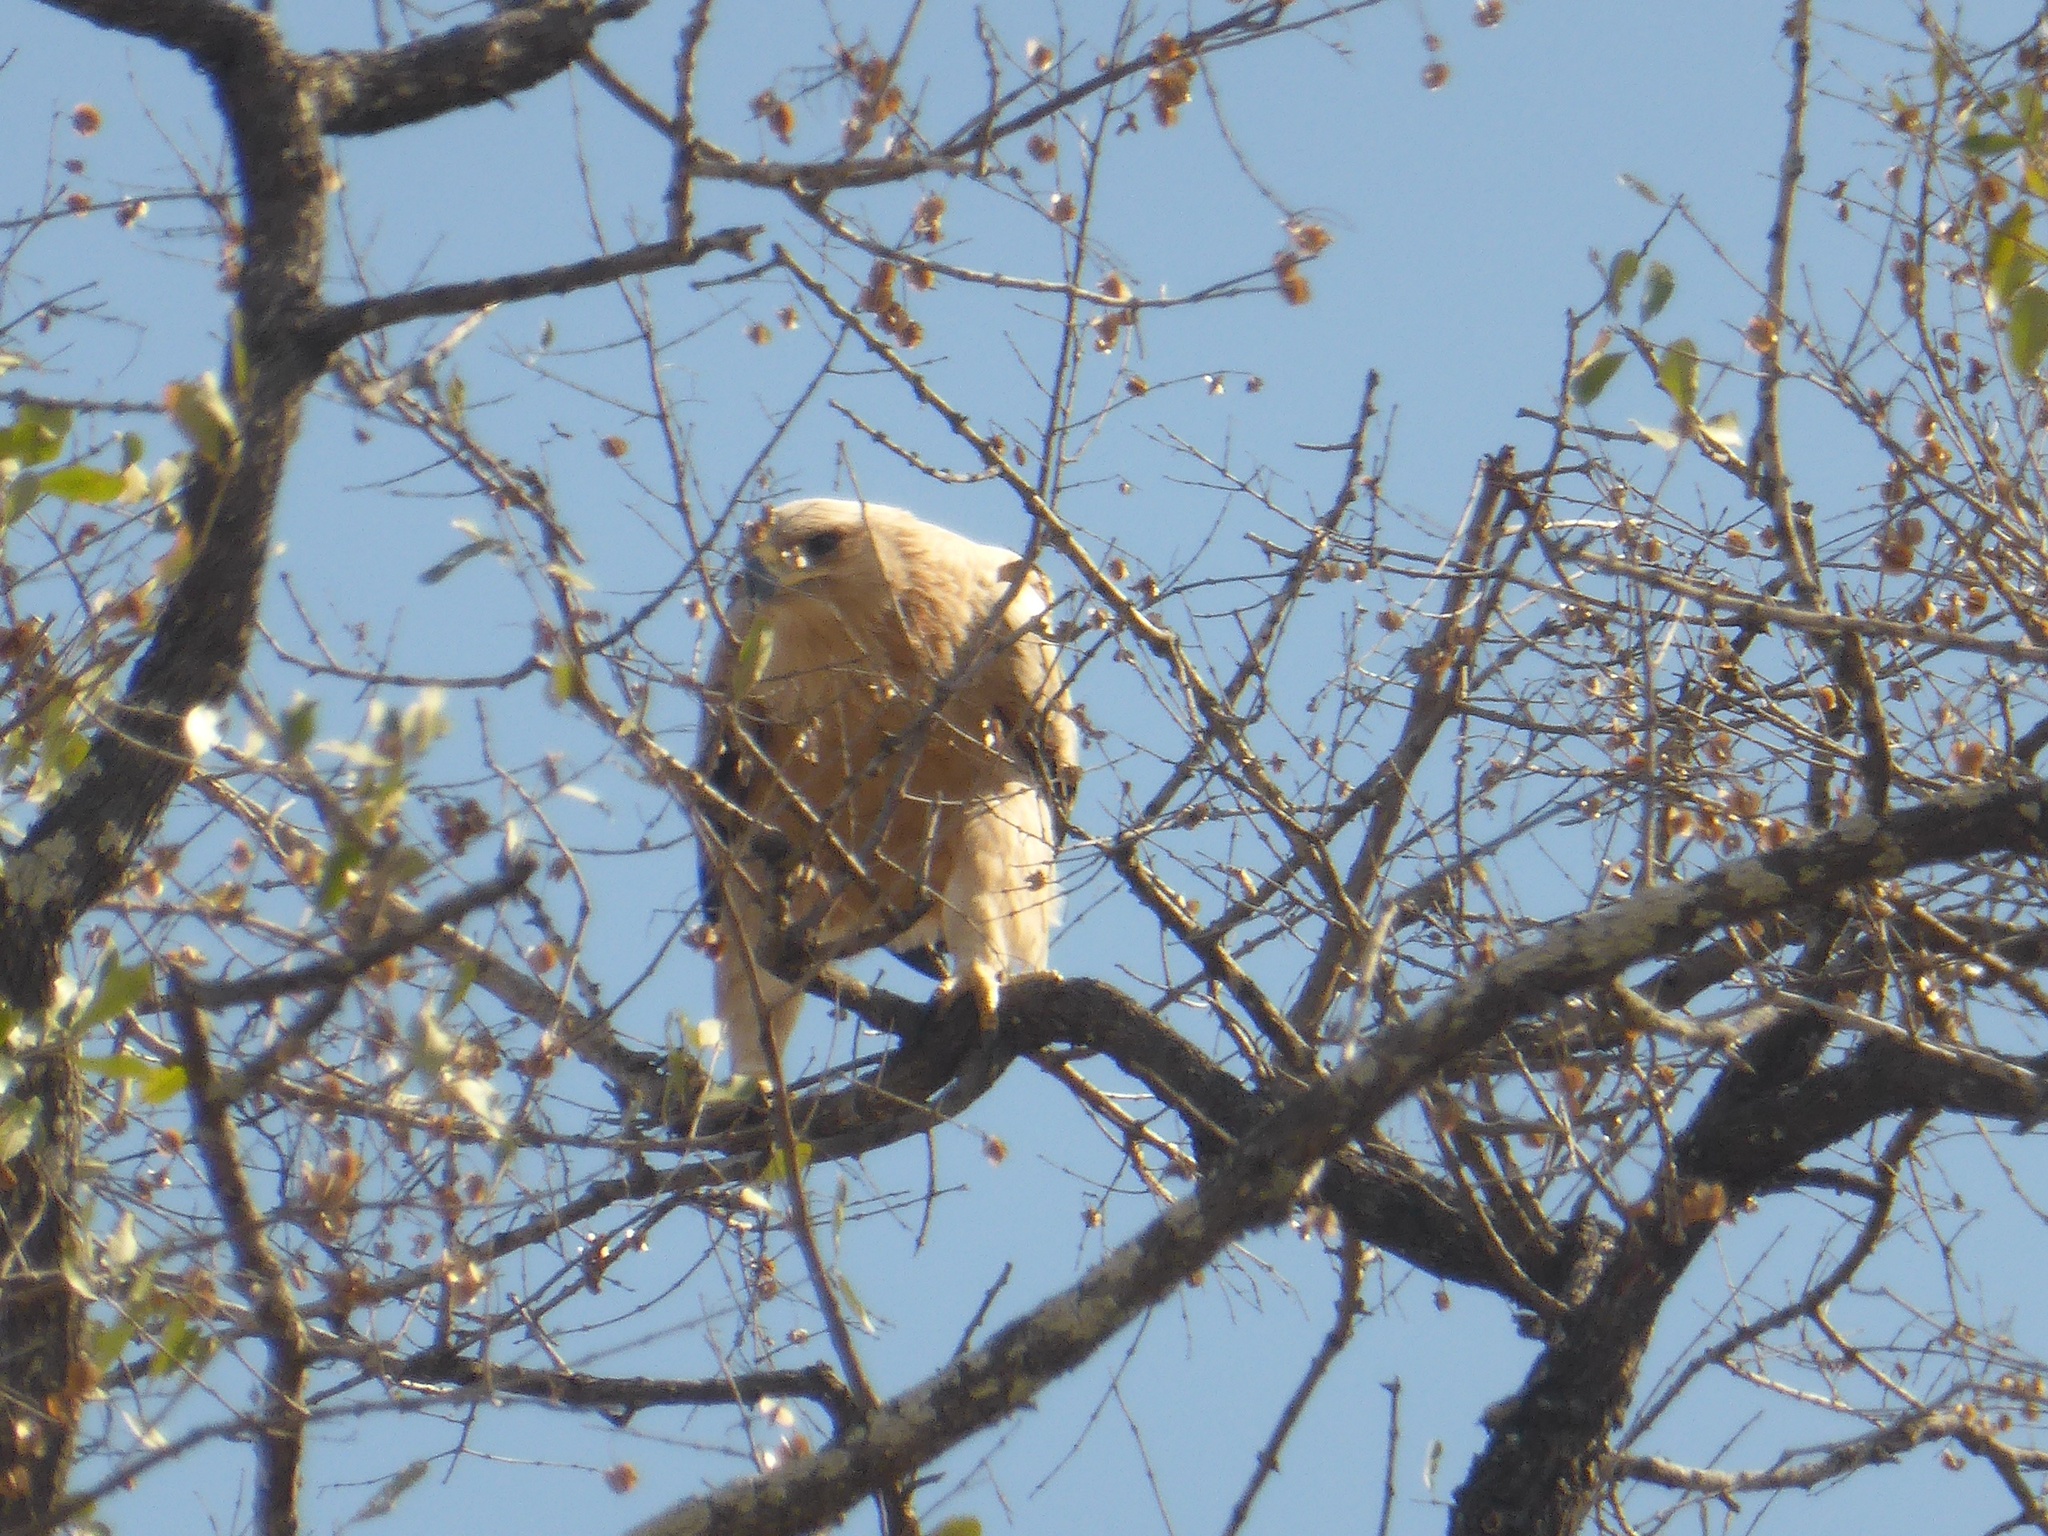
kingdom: Animalia
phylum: Chordata
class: Aves
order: Accipitriformes
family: Accipitridae
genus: Aquila
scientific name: Aquila rapax
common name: Tawny eagle
